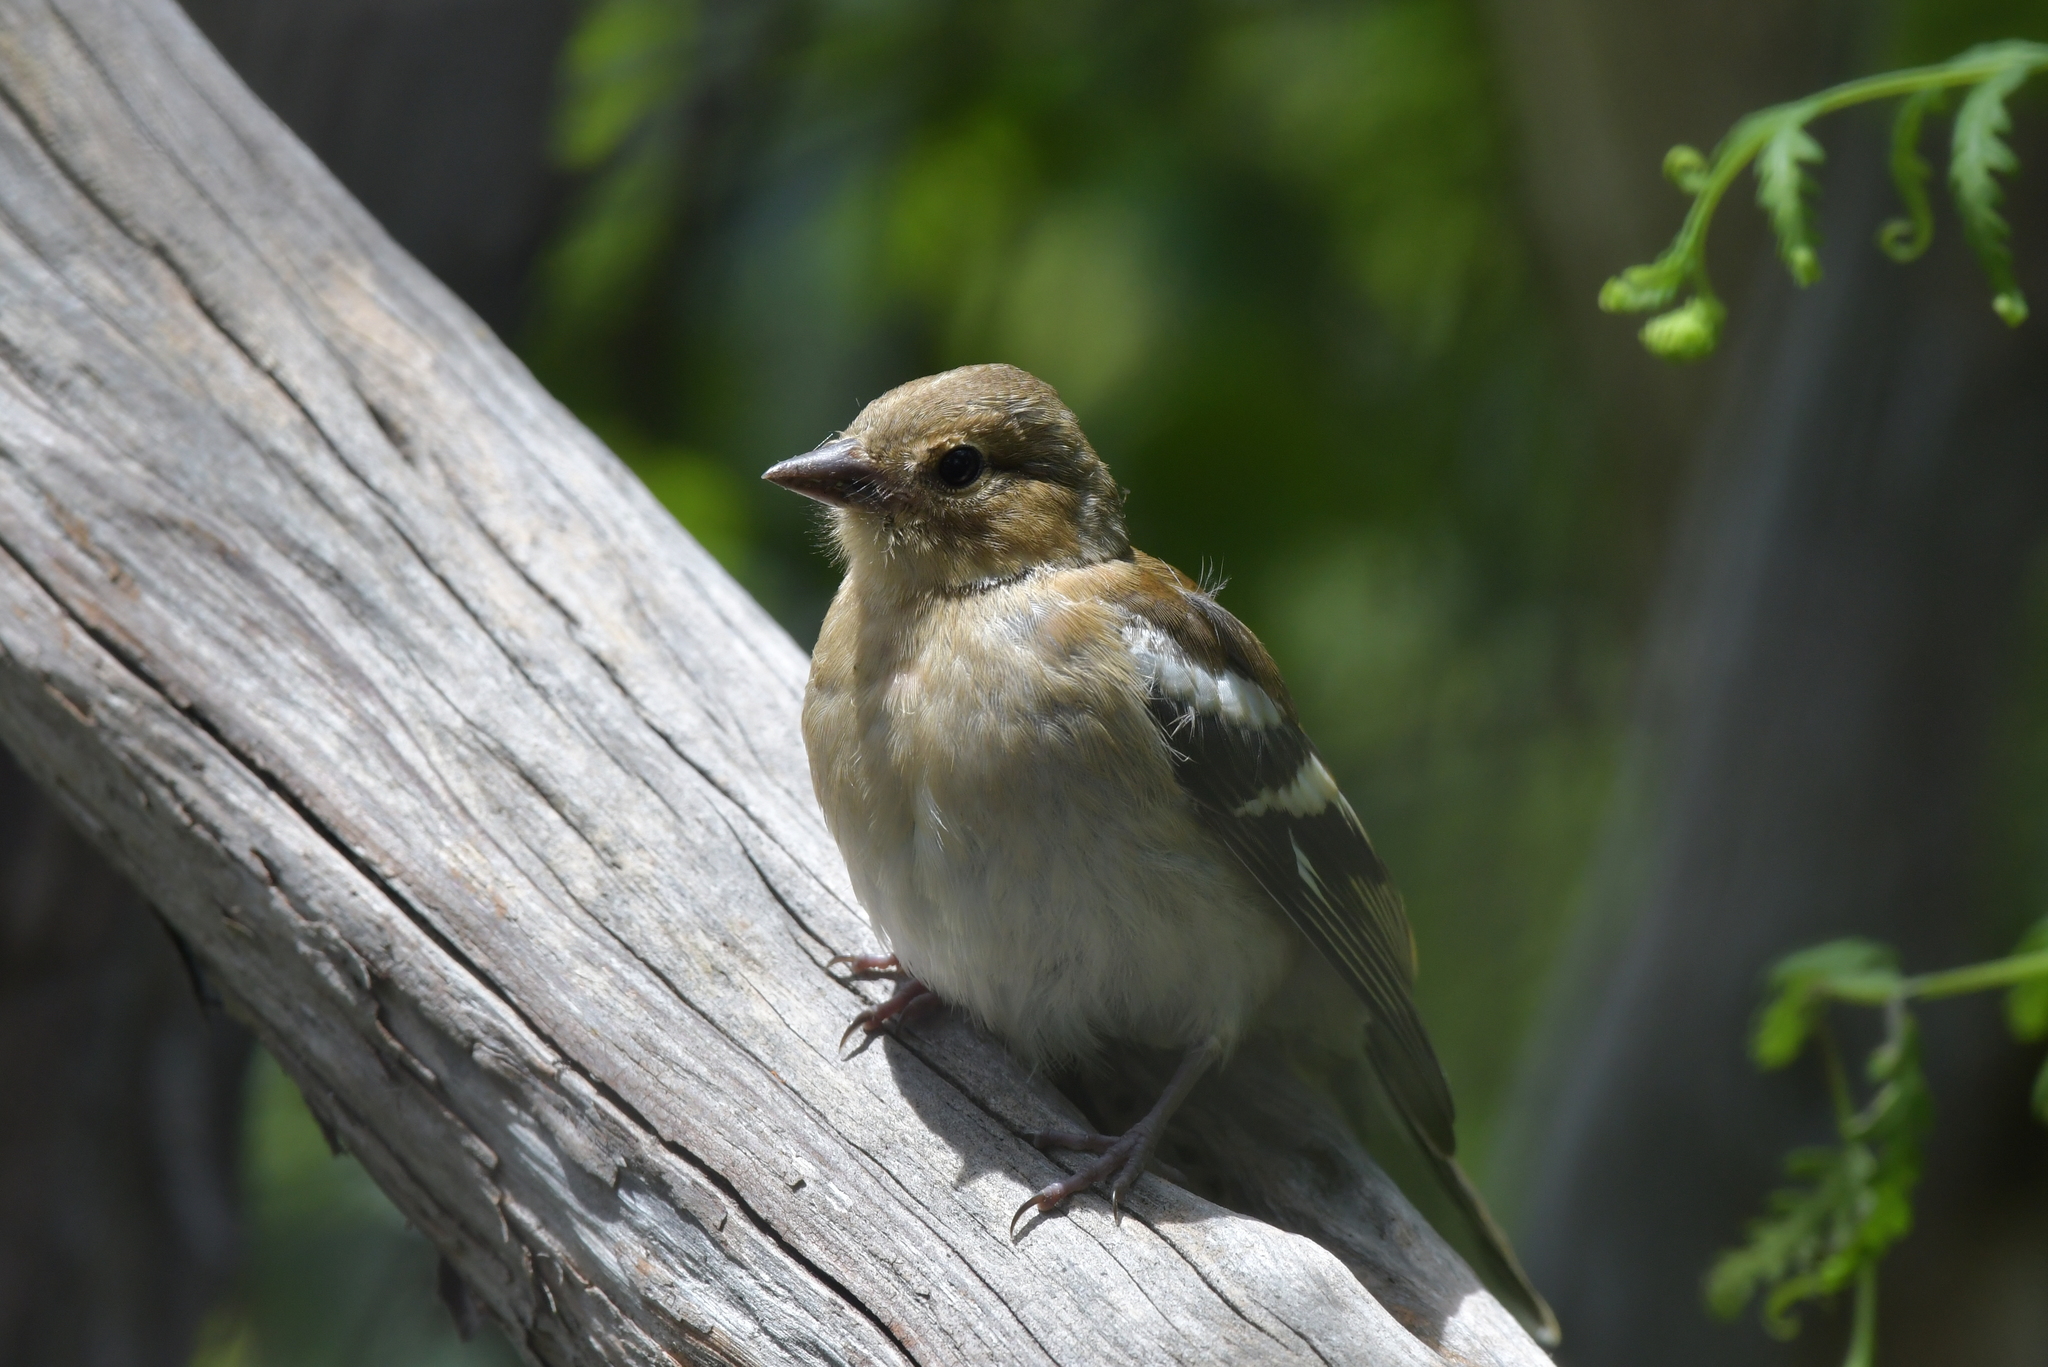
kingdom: Animalia
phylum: Chordata
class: Aves
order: Passeriformes
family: Fringillidae
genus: Fringilla
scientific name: Fringilla coelebs
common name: Common chaffinch
